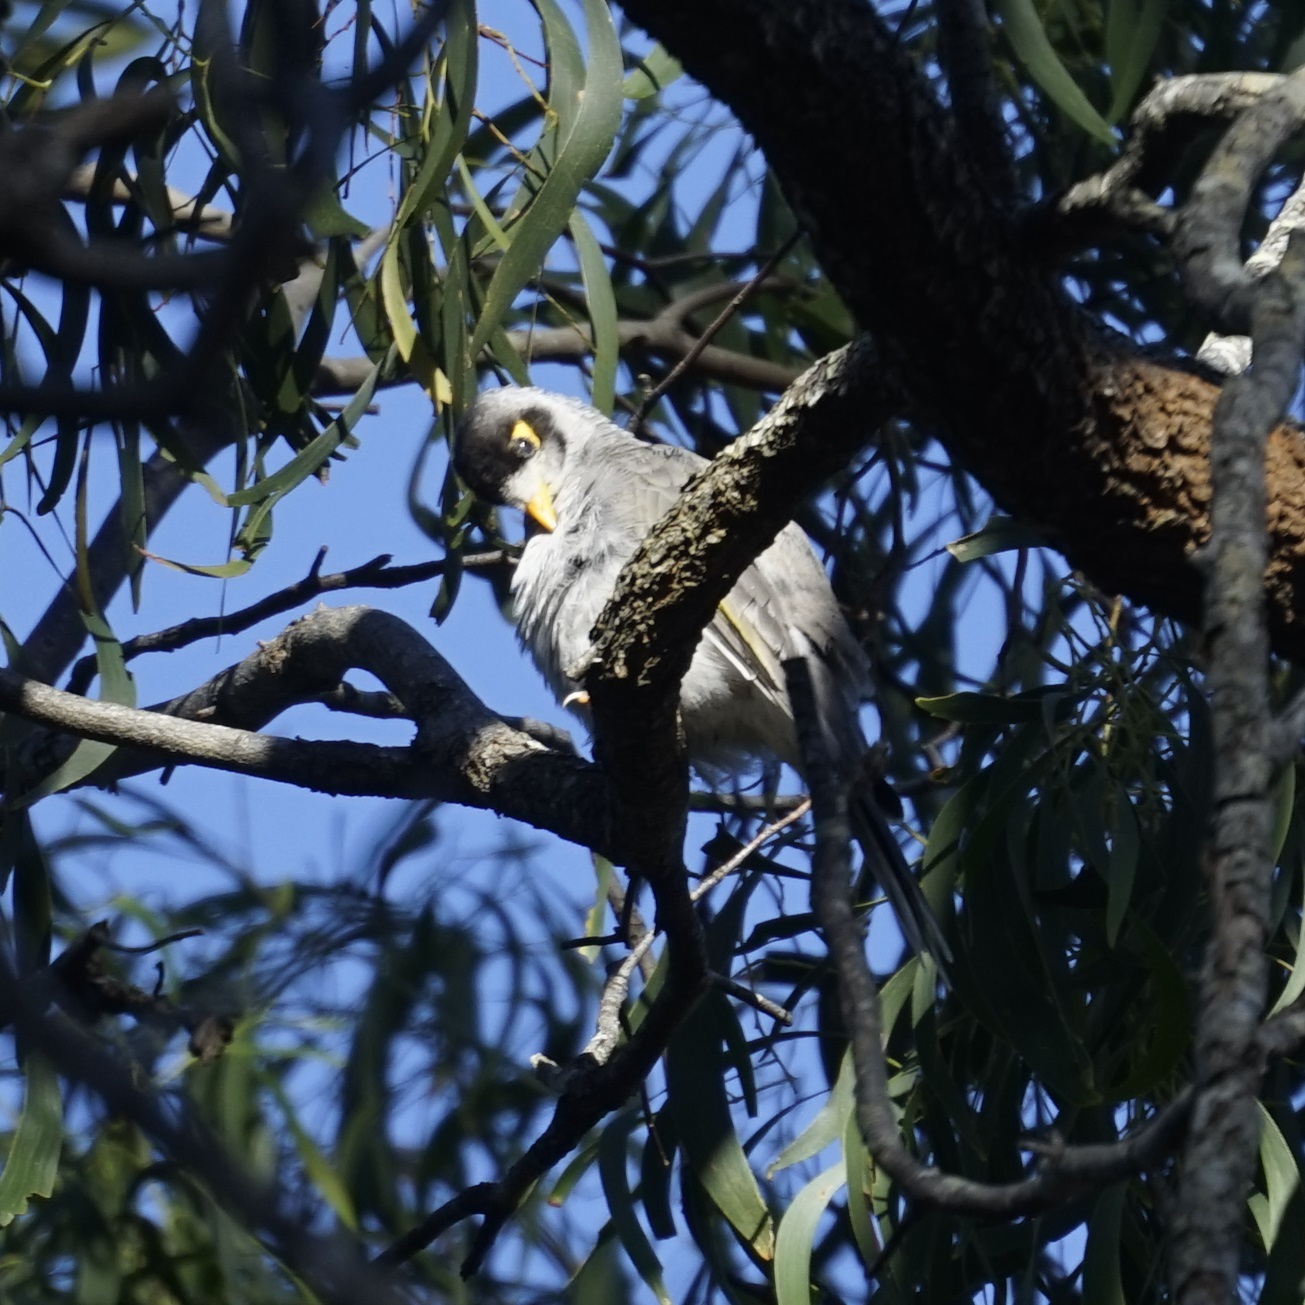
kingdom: Animalia
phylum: Chordata
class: Aves
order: Passeriformes
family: Meliphagidae
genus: Manorina
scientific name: Manorina melanocephala
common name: Noisy miner
